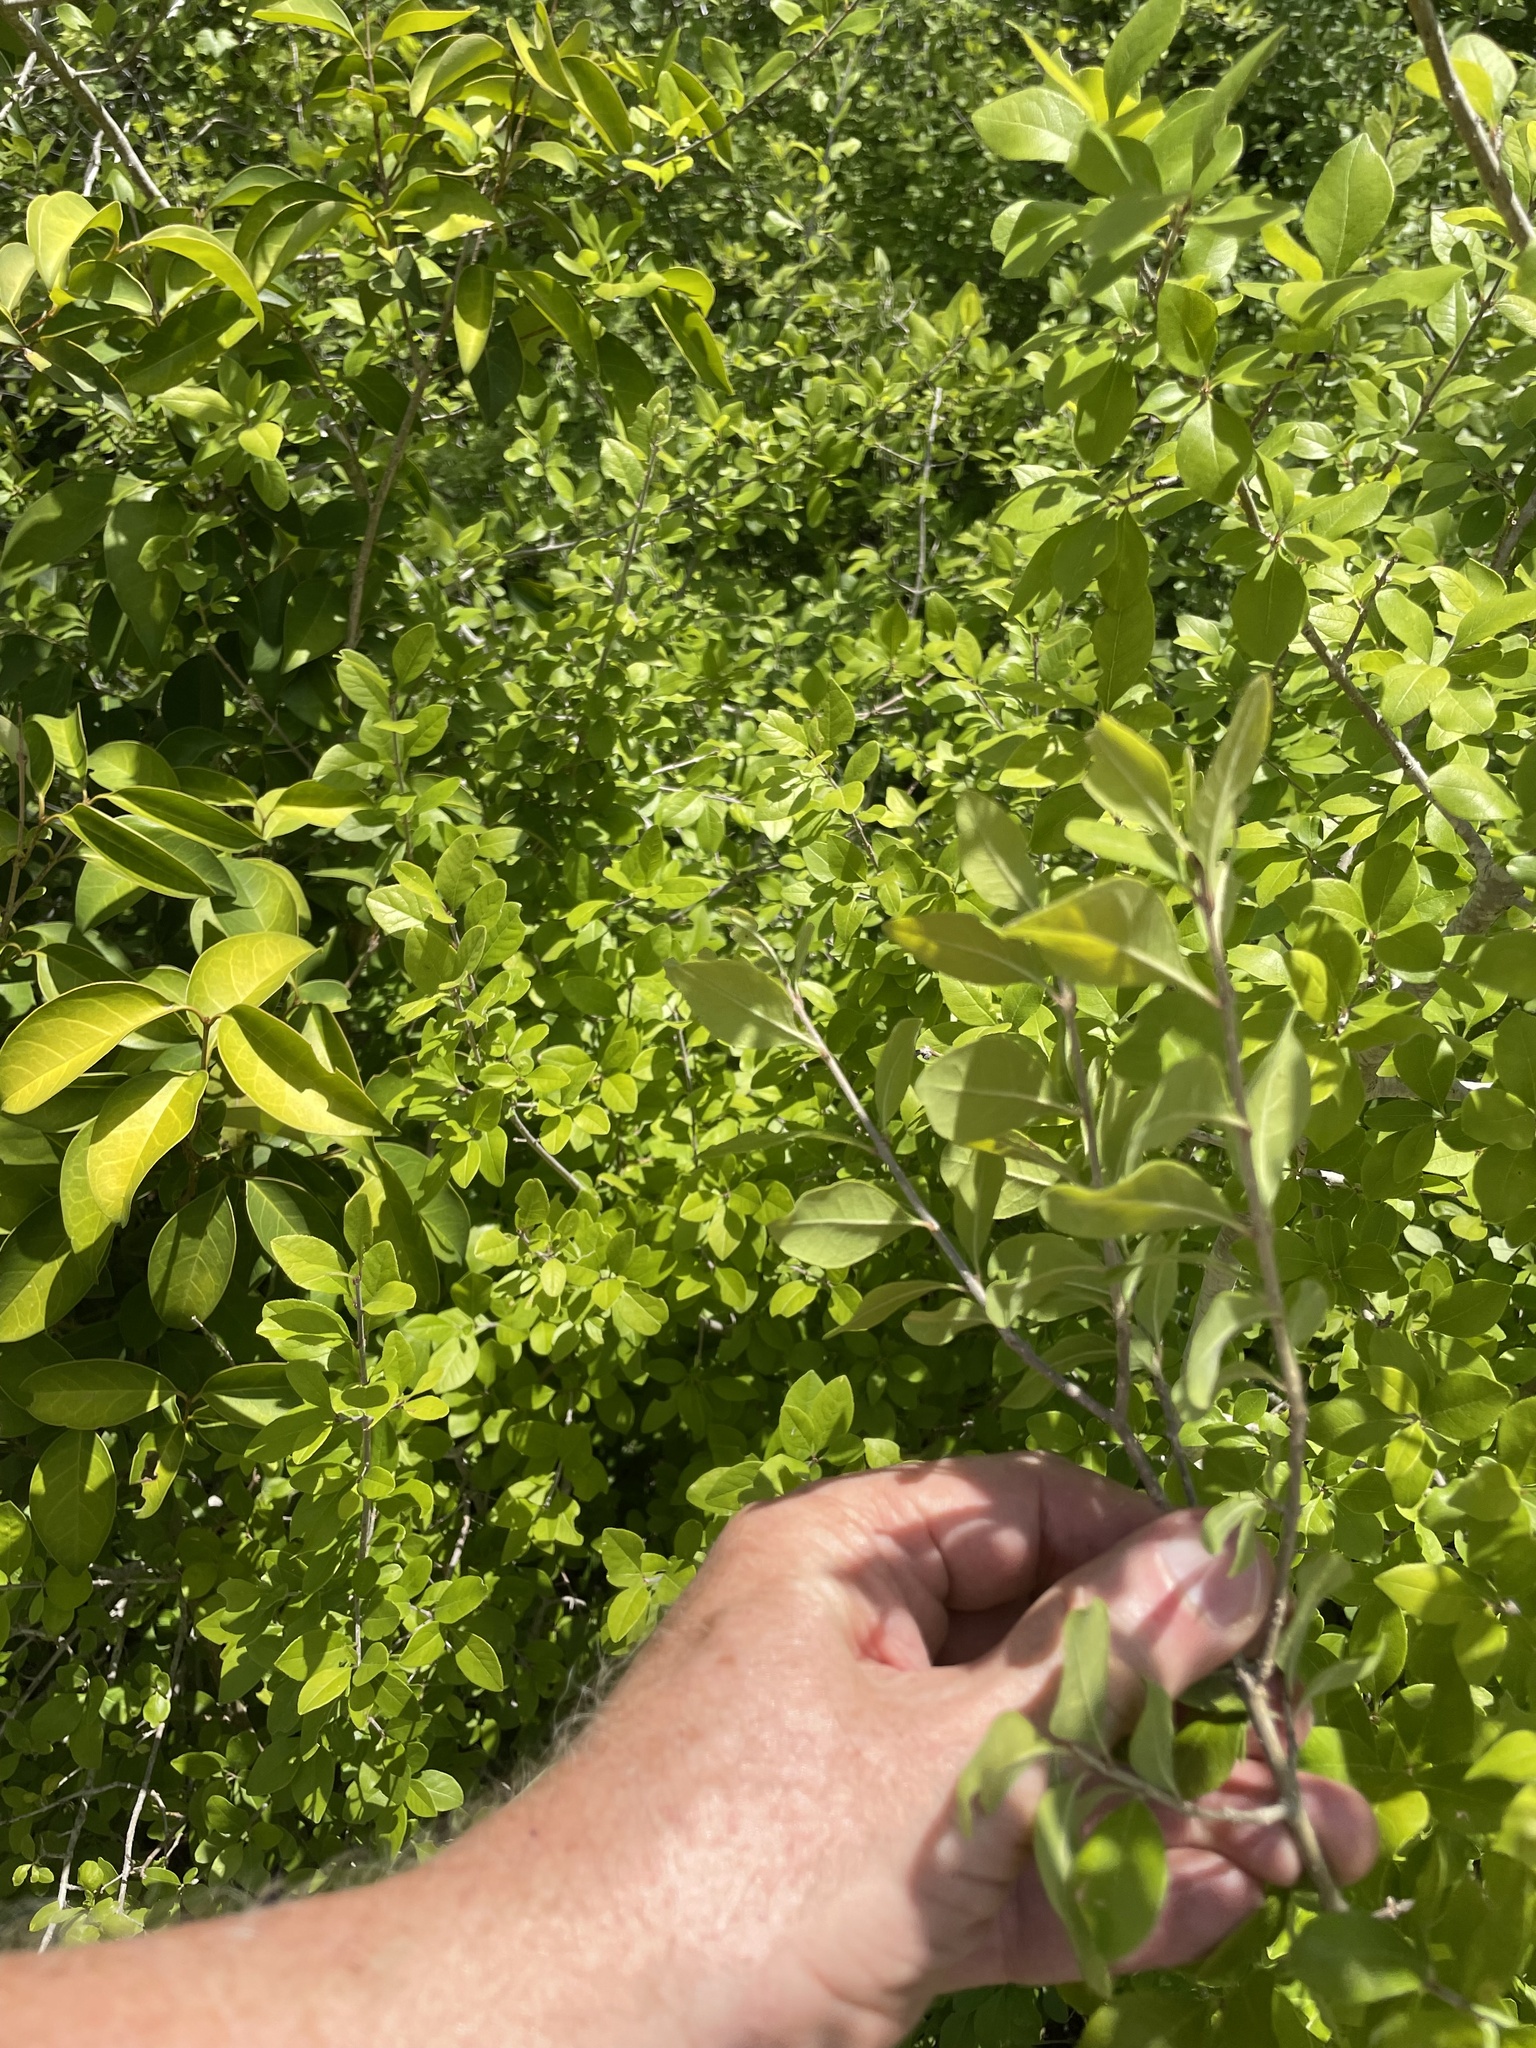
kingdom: Plantae
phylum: Tracheophyta
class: Magnoliopsida
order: Lamiales
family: Oleaceae
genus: Forestiera
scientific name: Forestiera pubescens
